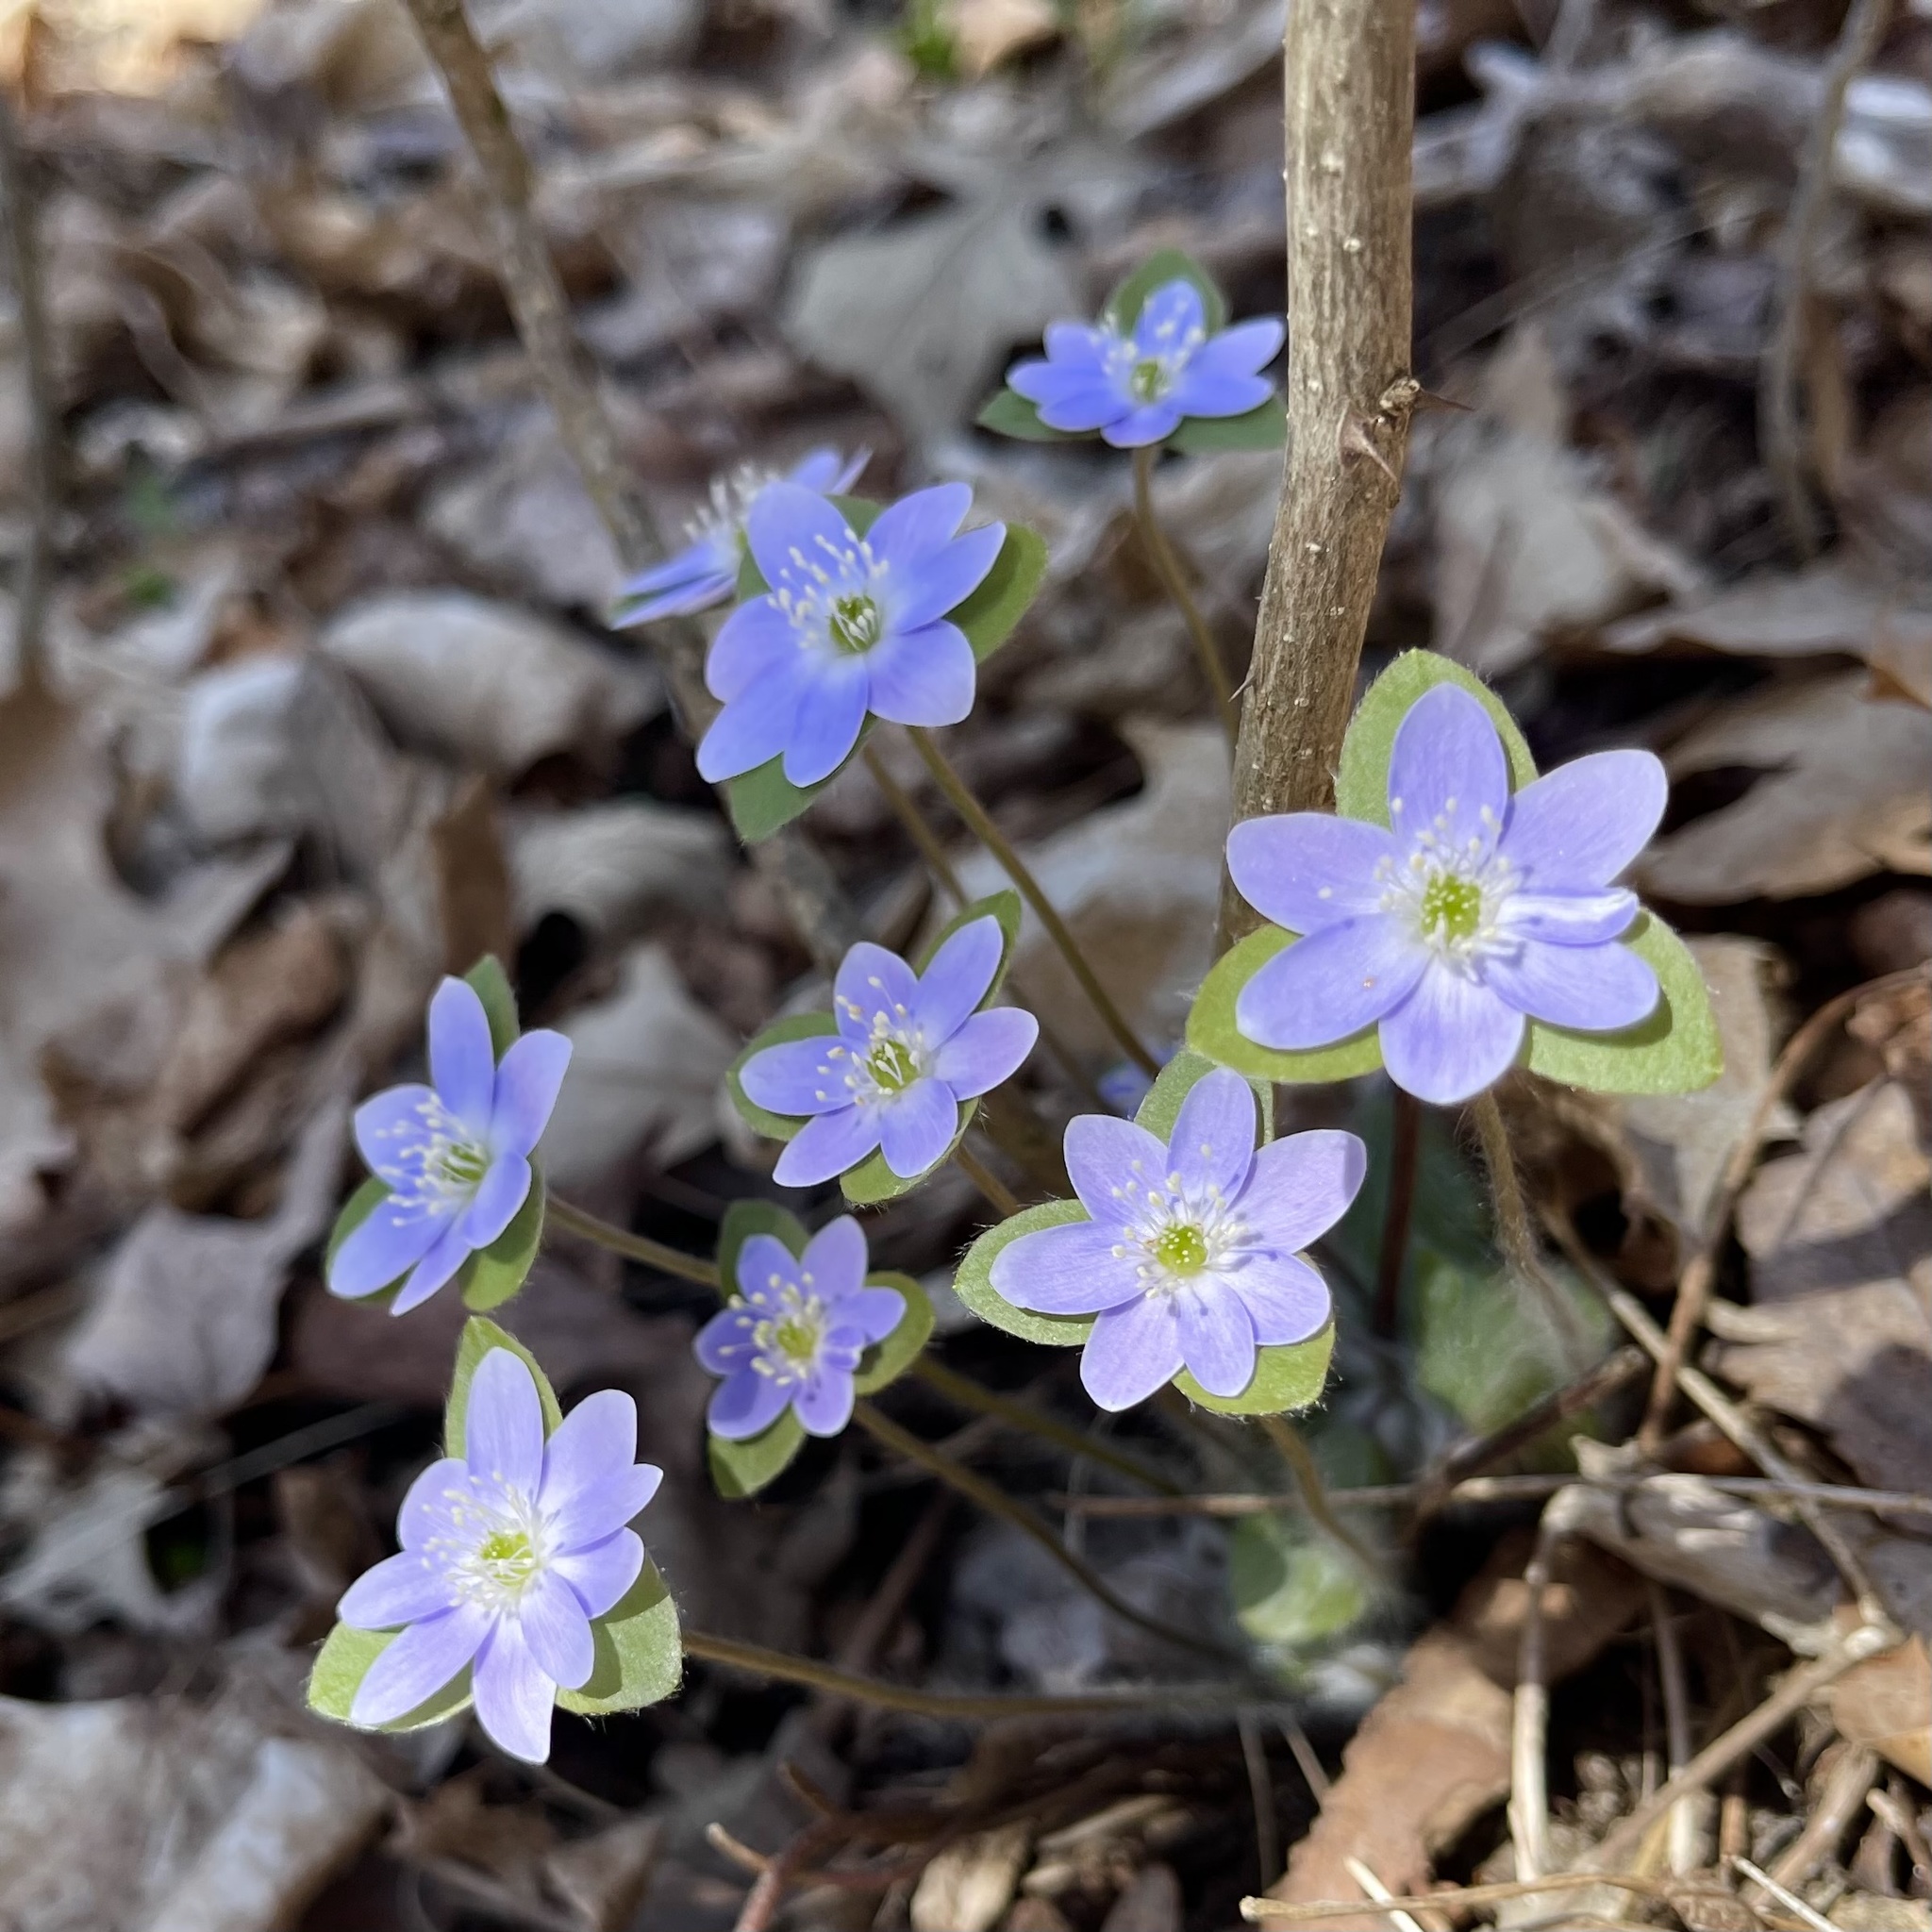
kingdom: Plantae
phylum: Tracheophyta
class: Magnoliopsida
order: Ranunculales
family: Ranunculaceae
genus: Hepatica
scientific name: Hepatica americana
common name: American hepatica
